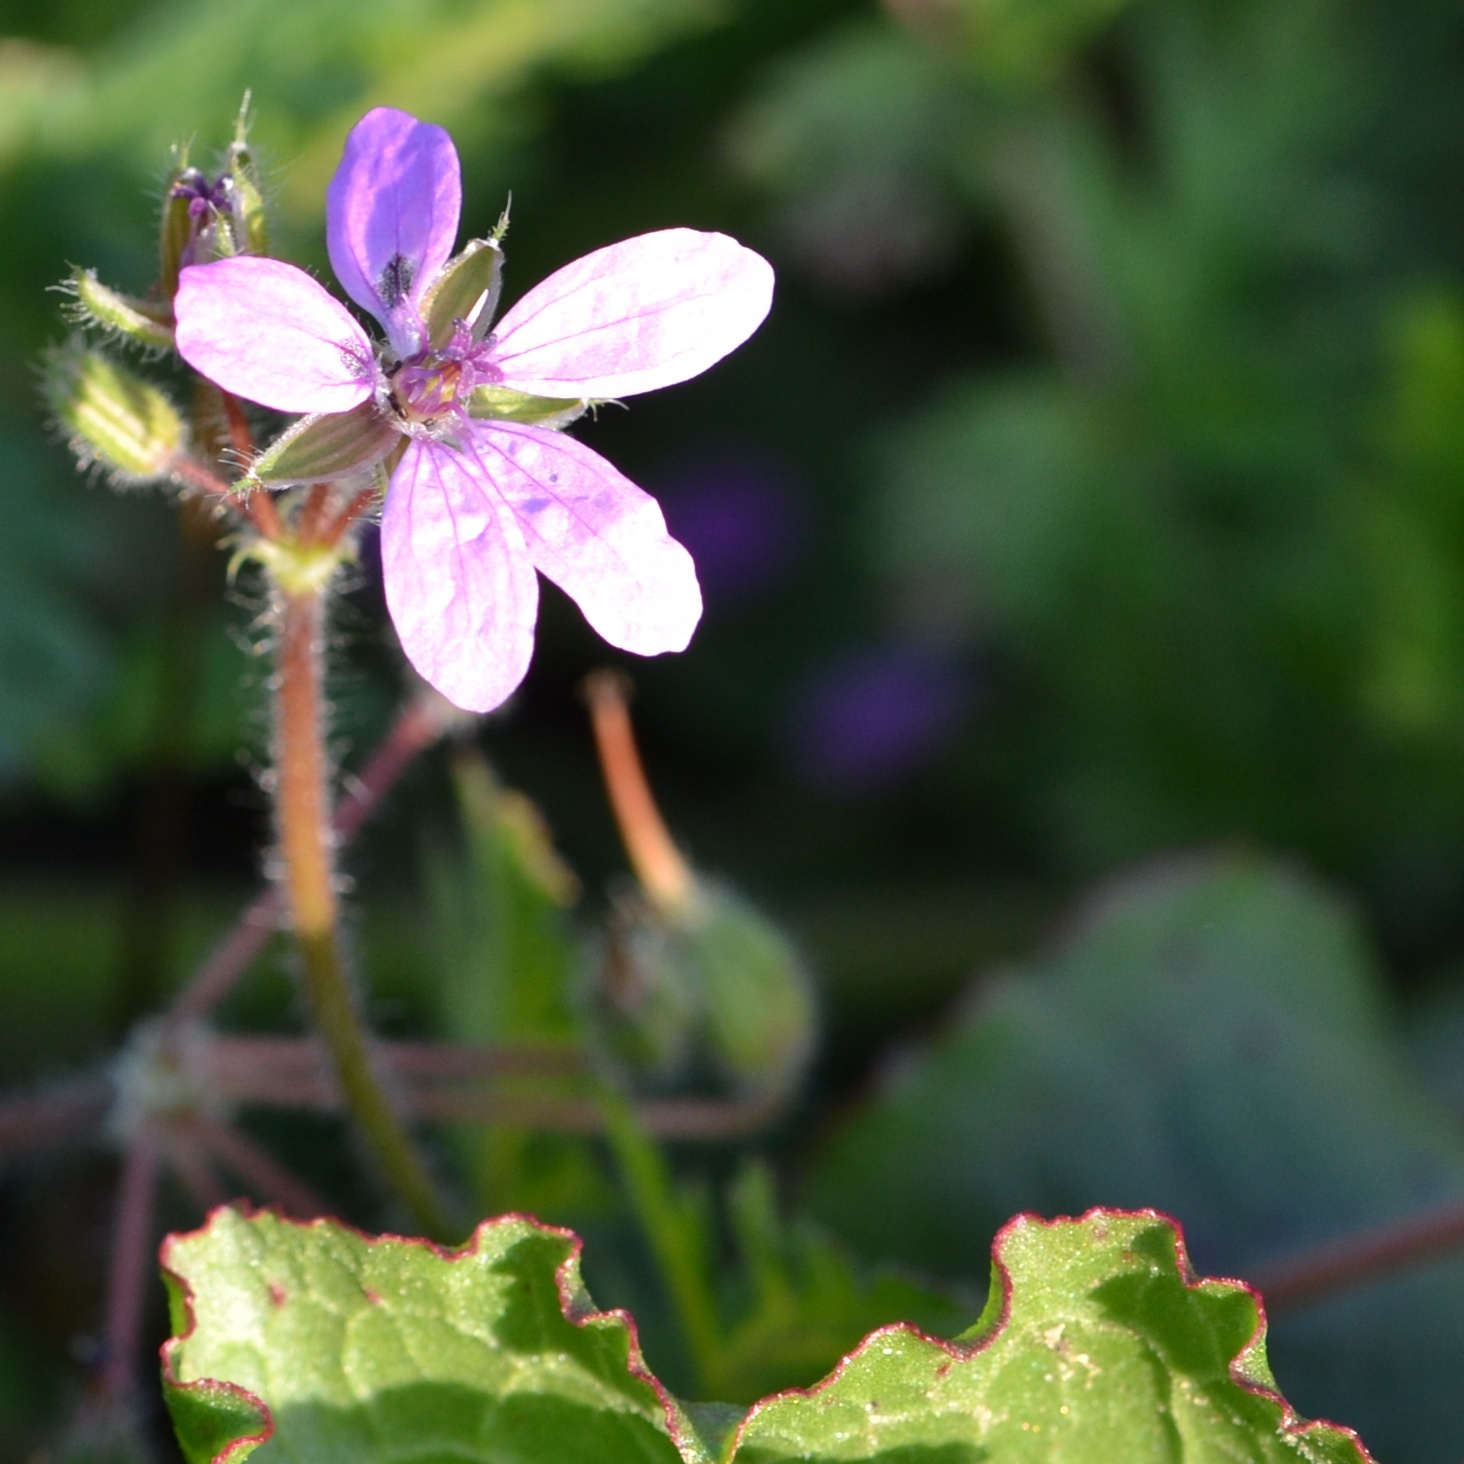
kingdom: Plantae
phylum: Tracheophyta
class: Magnoliopsida
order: Geraniales
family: Geraniaceae
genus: Erodium
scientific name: Erodium cicutarium
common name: Common stork's-bill
